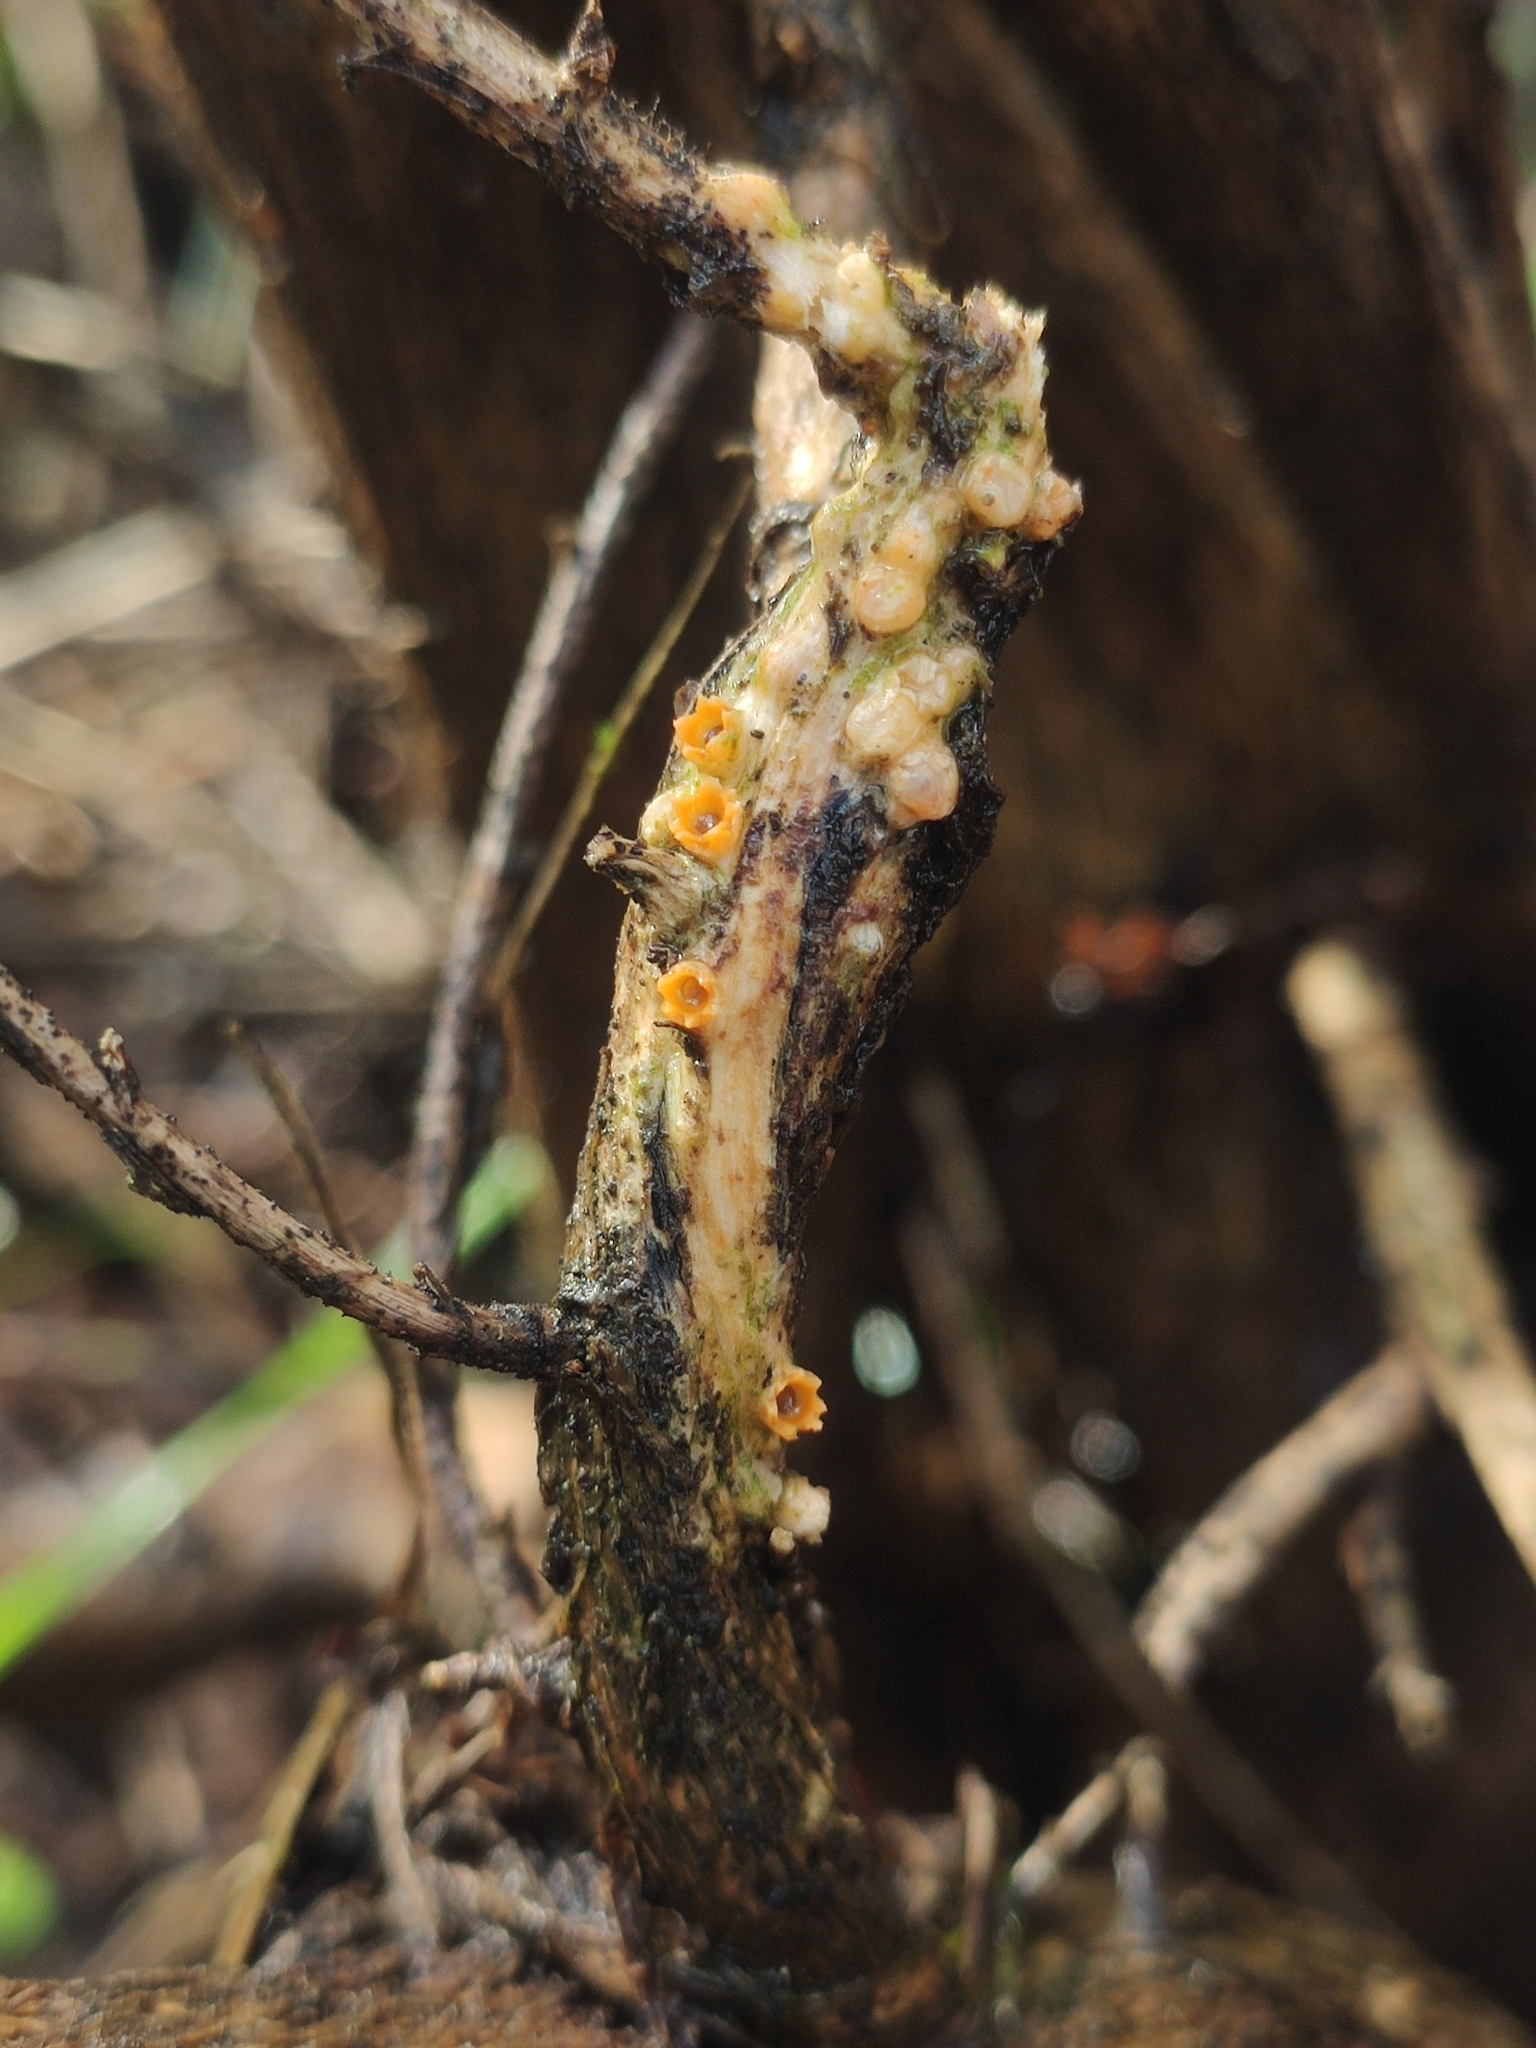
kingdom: Fungi
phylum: Basidiomycota
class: Agaricomycetes
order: Geastrales
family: Geastraceae
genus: Sphaerobolus
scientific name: Sphaerobolus stellatus
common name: Cannon fungus
